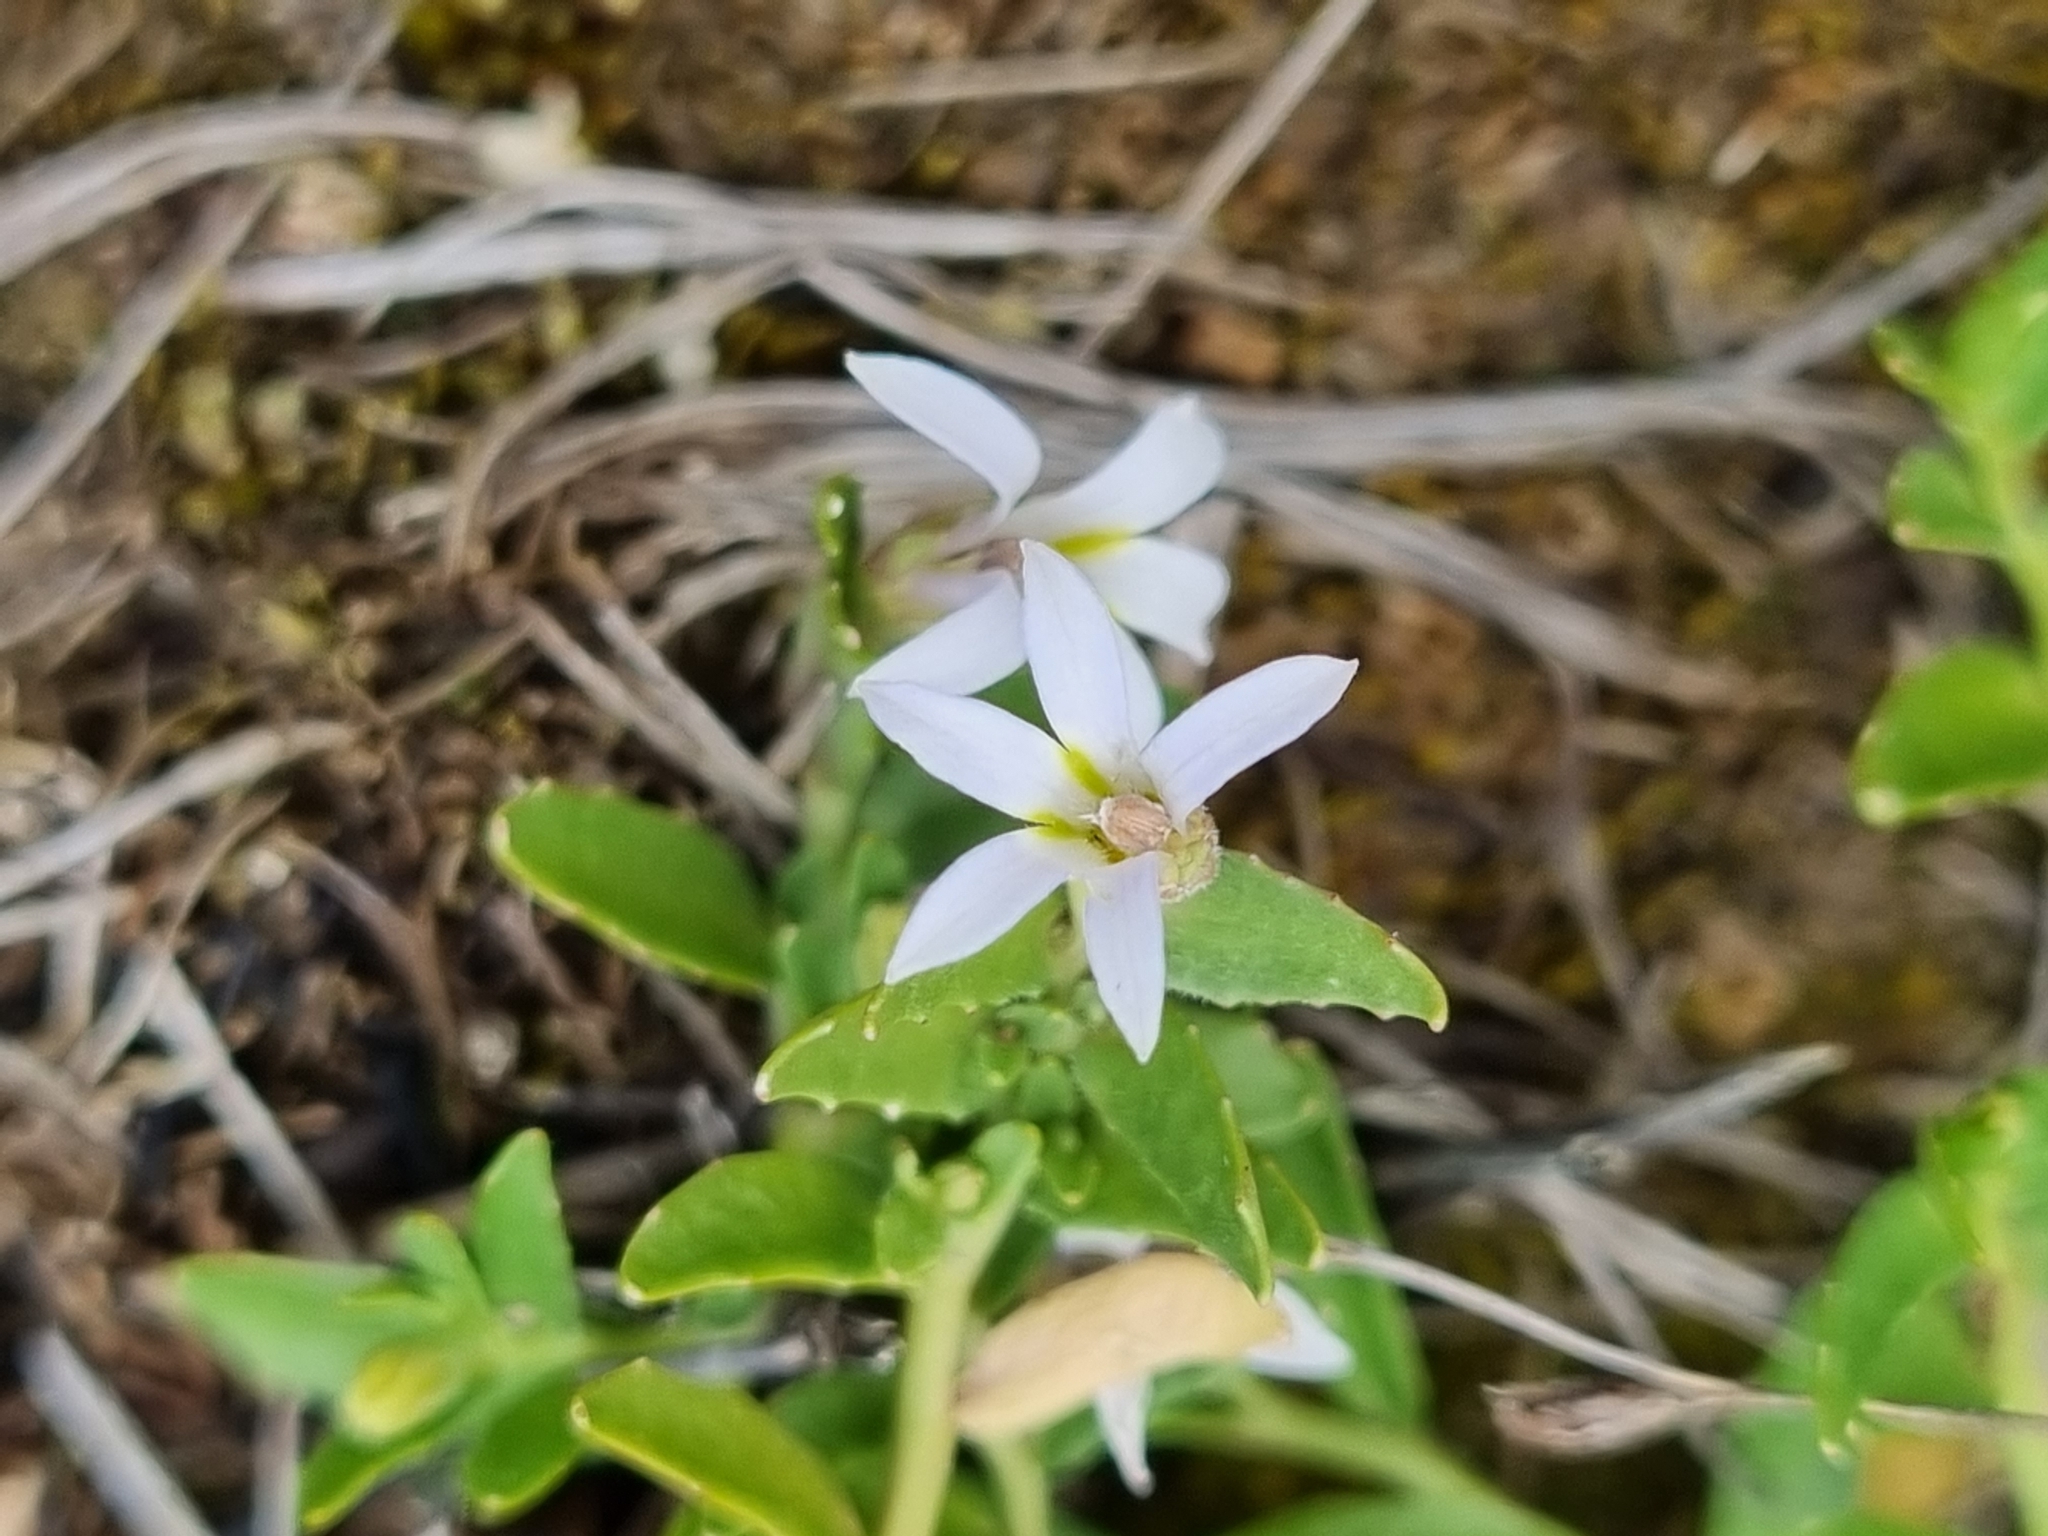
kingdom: Plantae
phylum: Tracheophyta
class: Magnoliopsida
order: Asterales
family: Campanulaceae
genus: Lobelia
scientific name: Lobelia pedunculata
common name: Matted pratia
